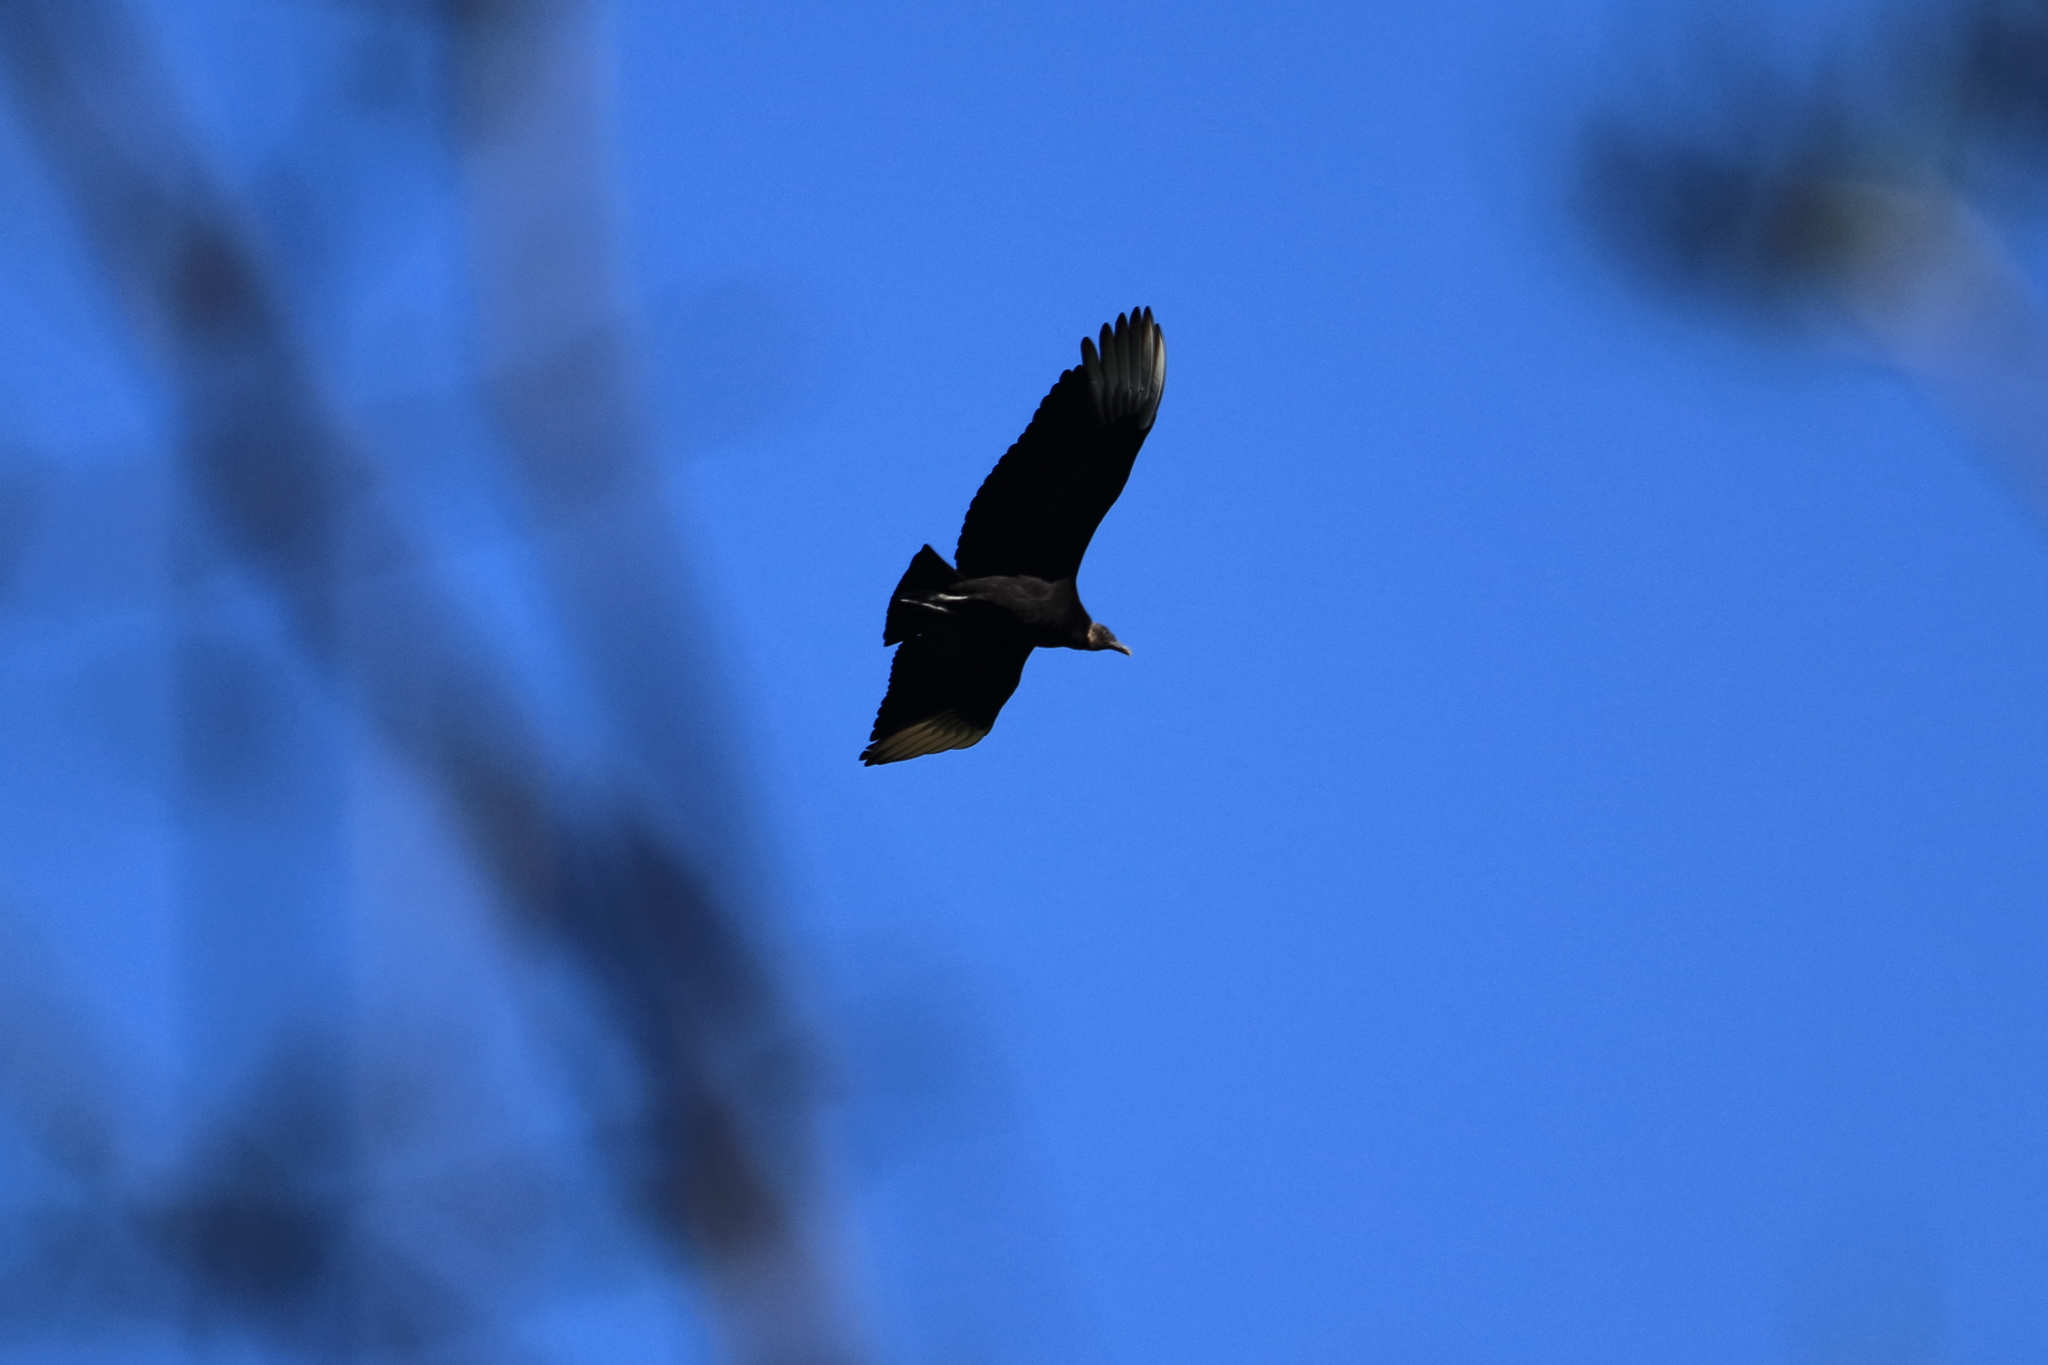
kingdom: Animalia
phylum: Chordata
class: Aves
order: Accipitriformes
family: Cathartidae
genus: Coragyps
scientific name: Coragyps atratus
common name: Black vulture
